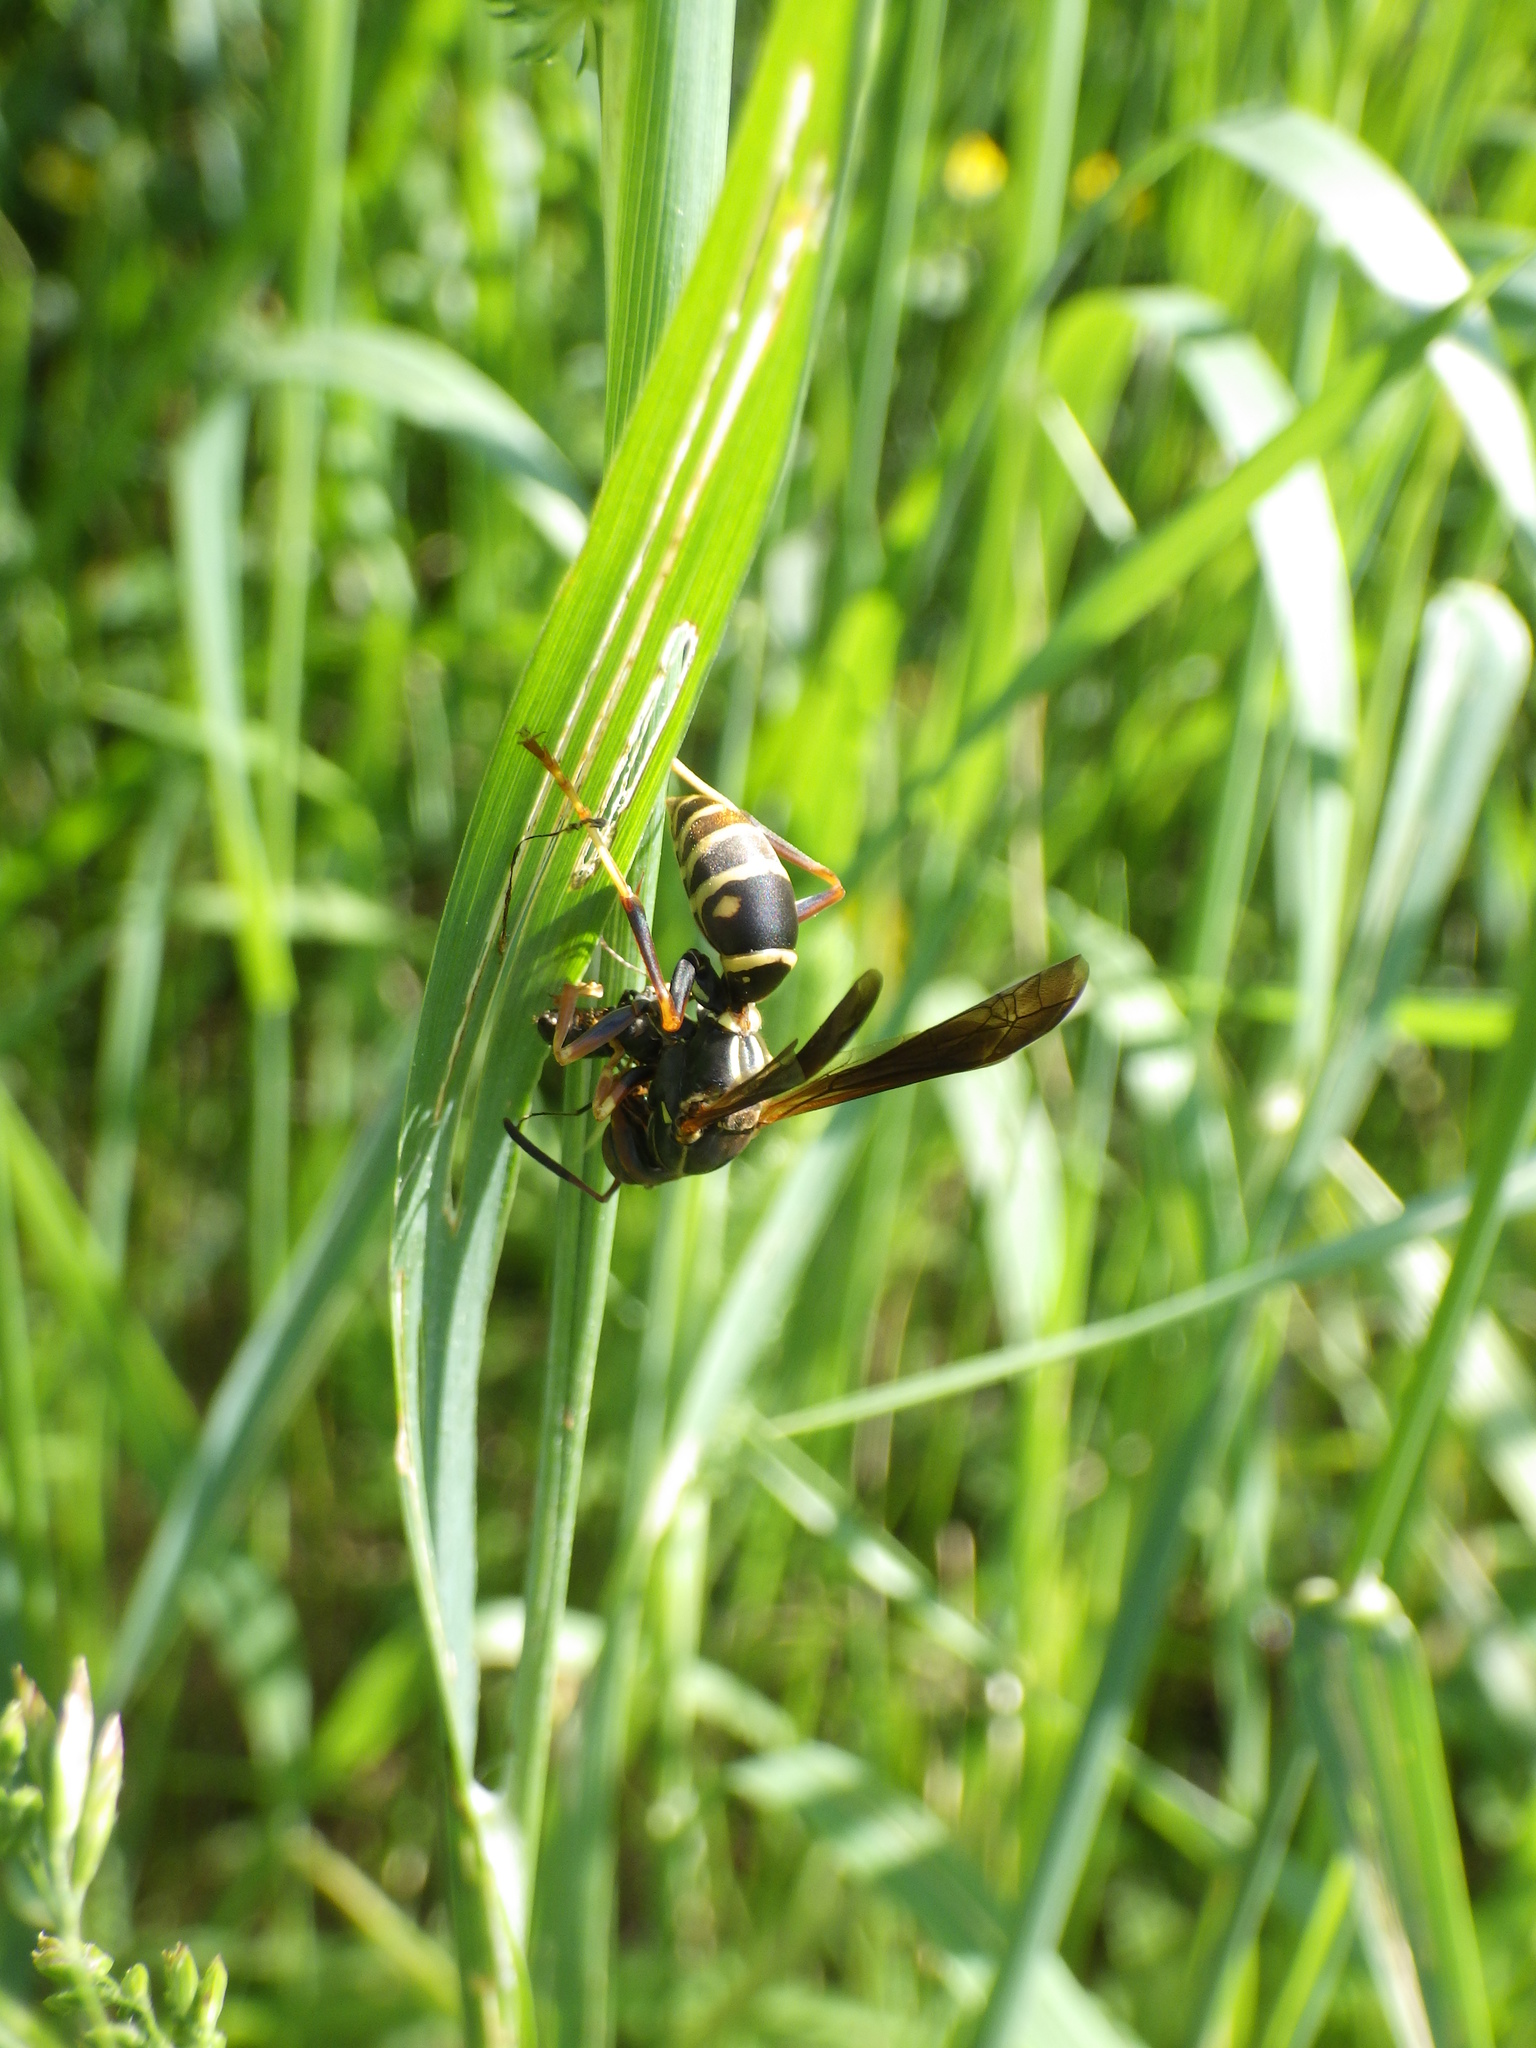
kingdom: Animalia
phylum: Arthropoda
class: Insecta
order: Hymenoptera
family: Eumenidae
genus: Polistes
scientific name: Polistes fuscatus
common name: Dark paper wasp
